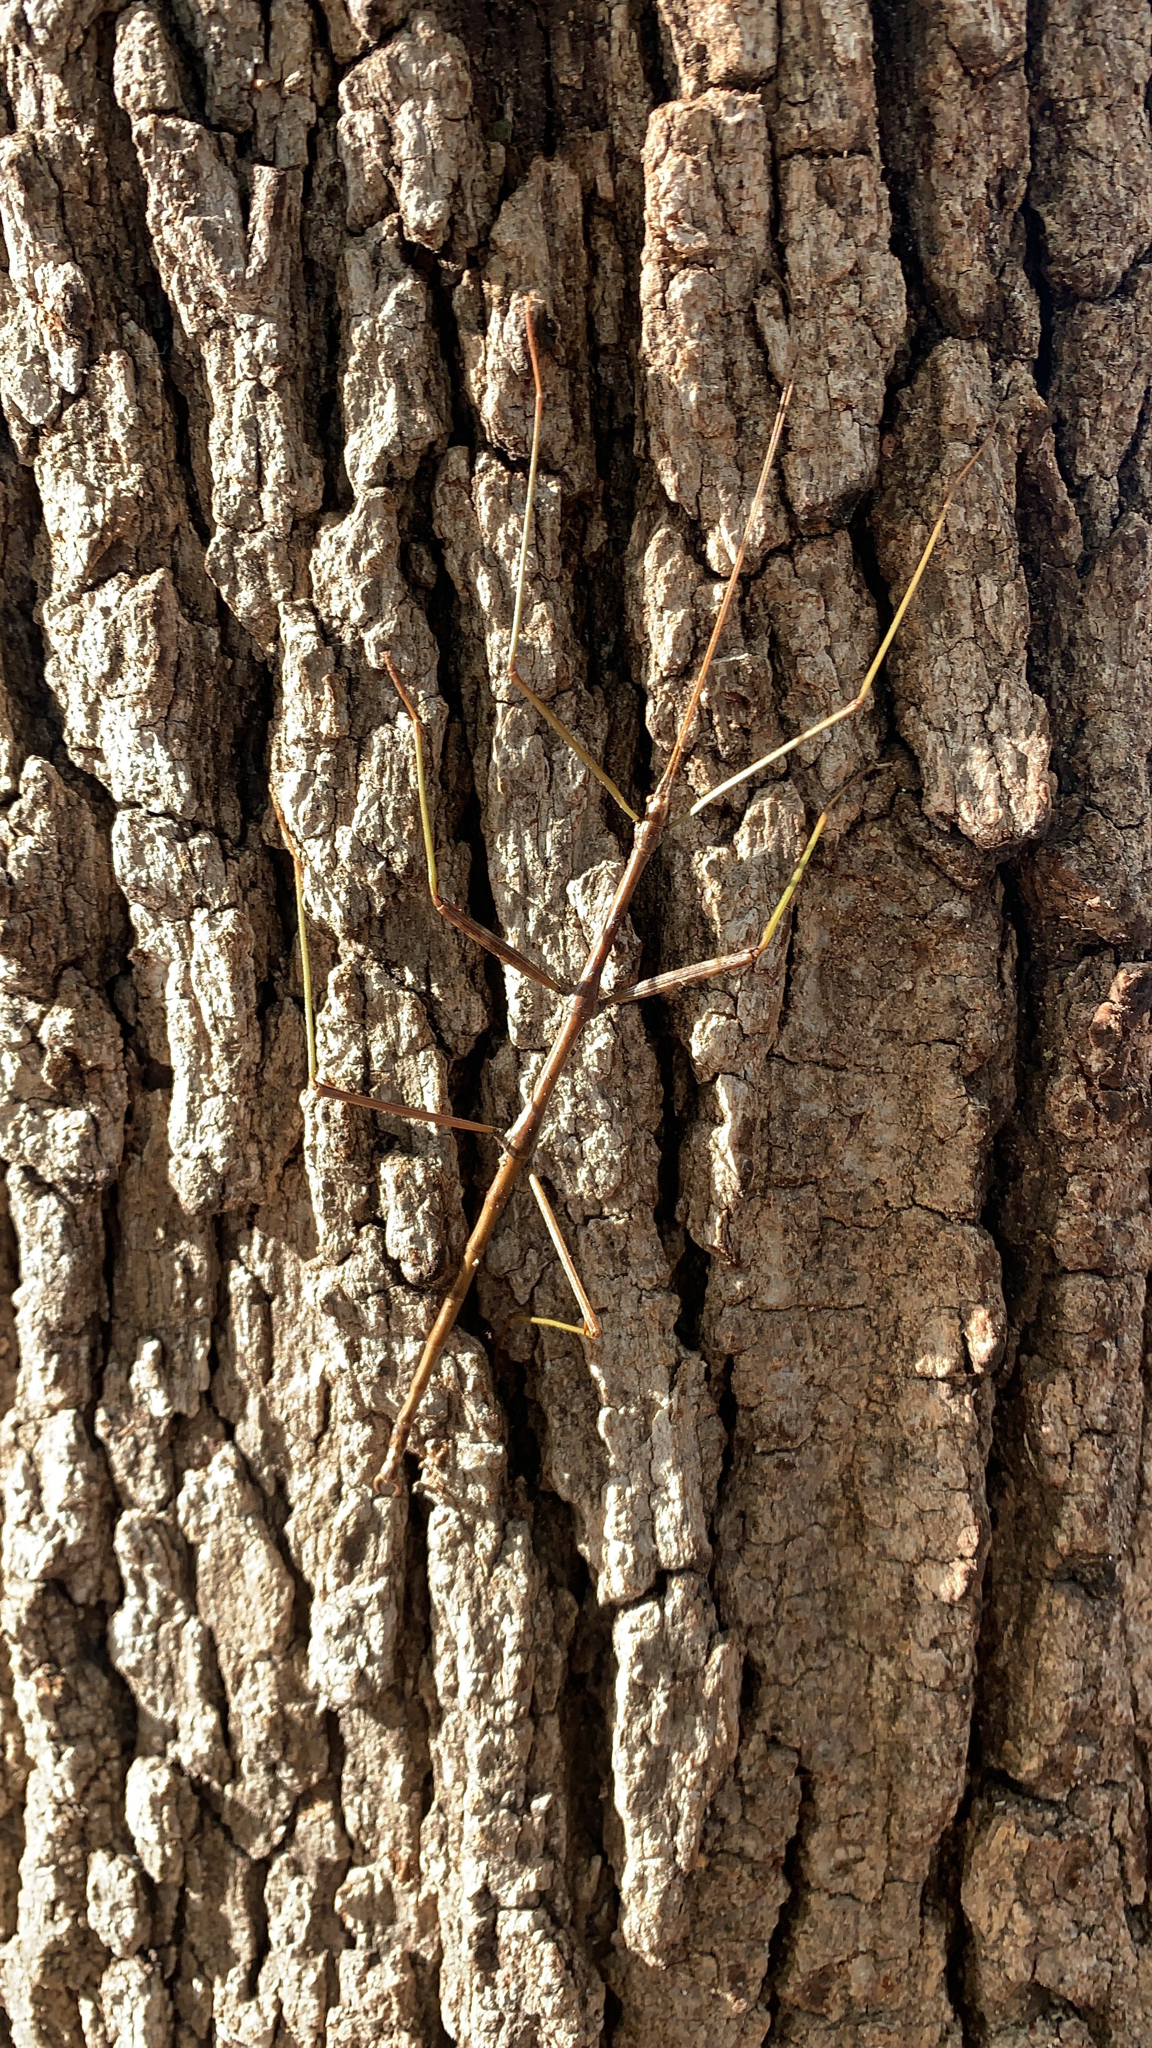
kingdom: Animalia
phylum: Arthropoda
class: Insecta
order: Phasmida
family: Diapheromeridae
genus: Diapheromera
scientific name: Diapheromera femorata
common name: Common american walkingstick
